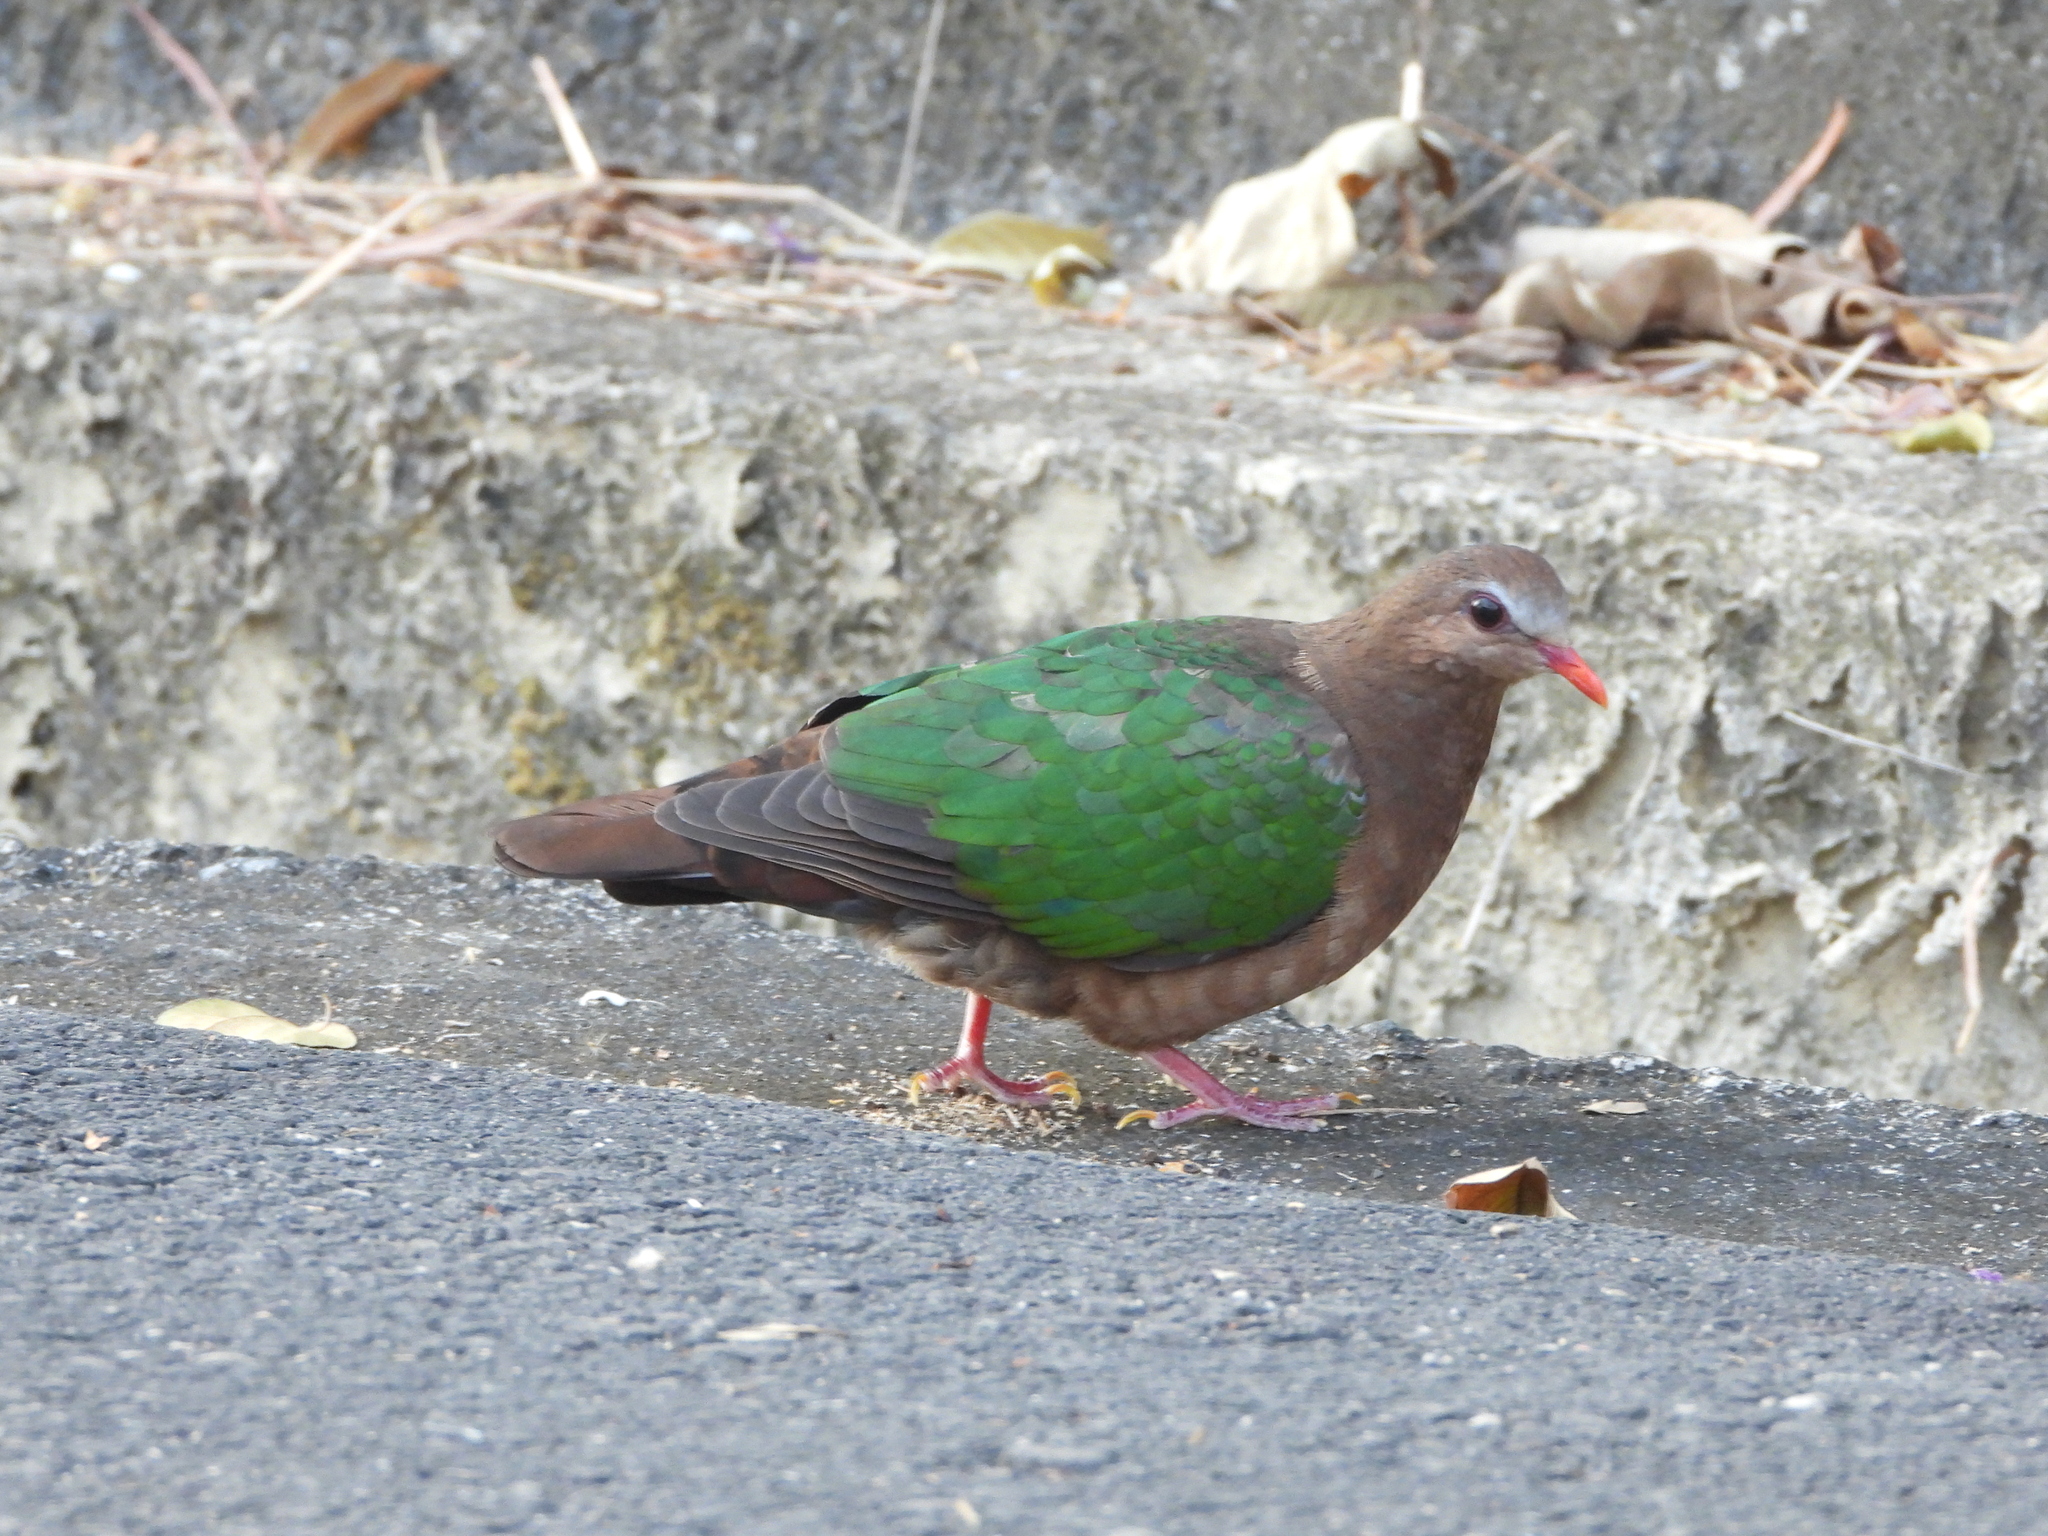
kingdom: Animalia
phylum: Chordata
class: Aves
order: Columbiformes
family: Columbidae
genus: Chalcophaps
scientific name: Chalcophaps indica
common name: Common emerald dove
